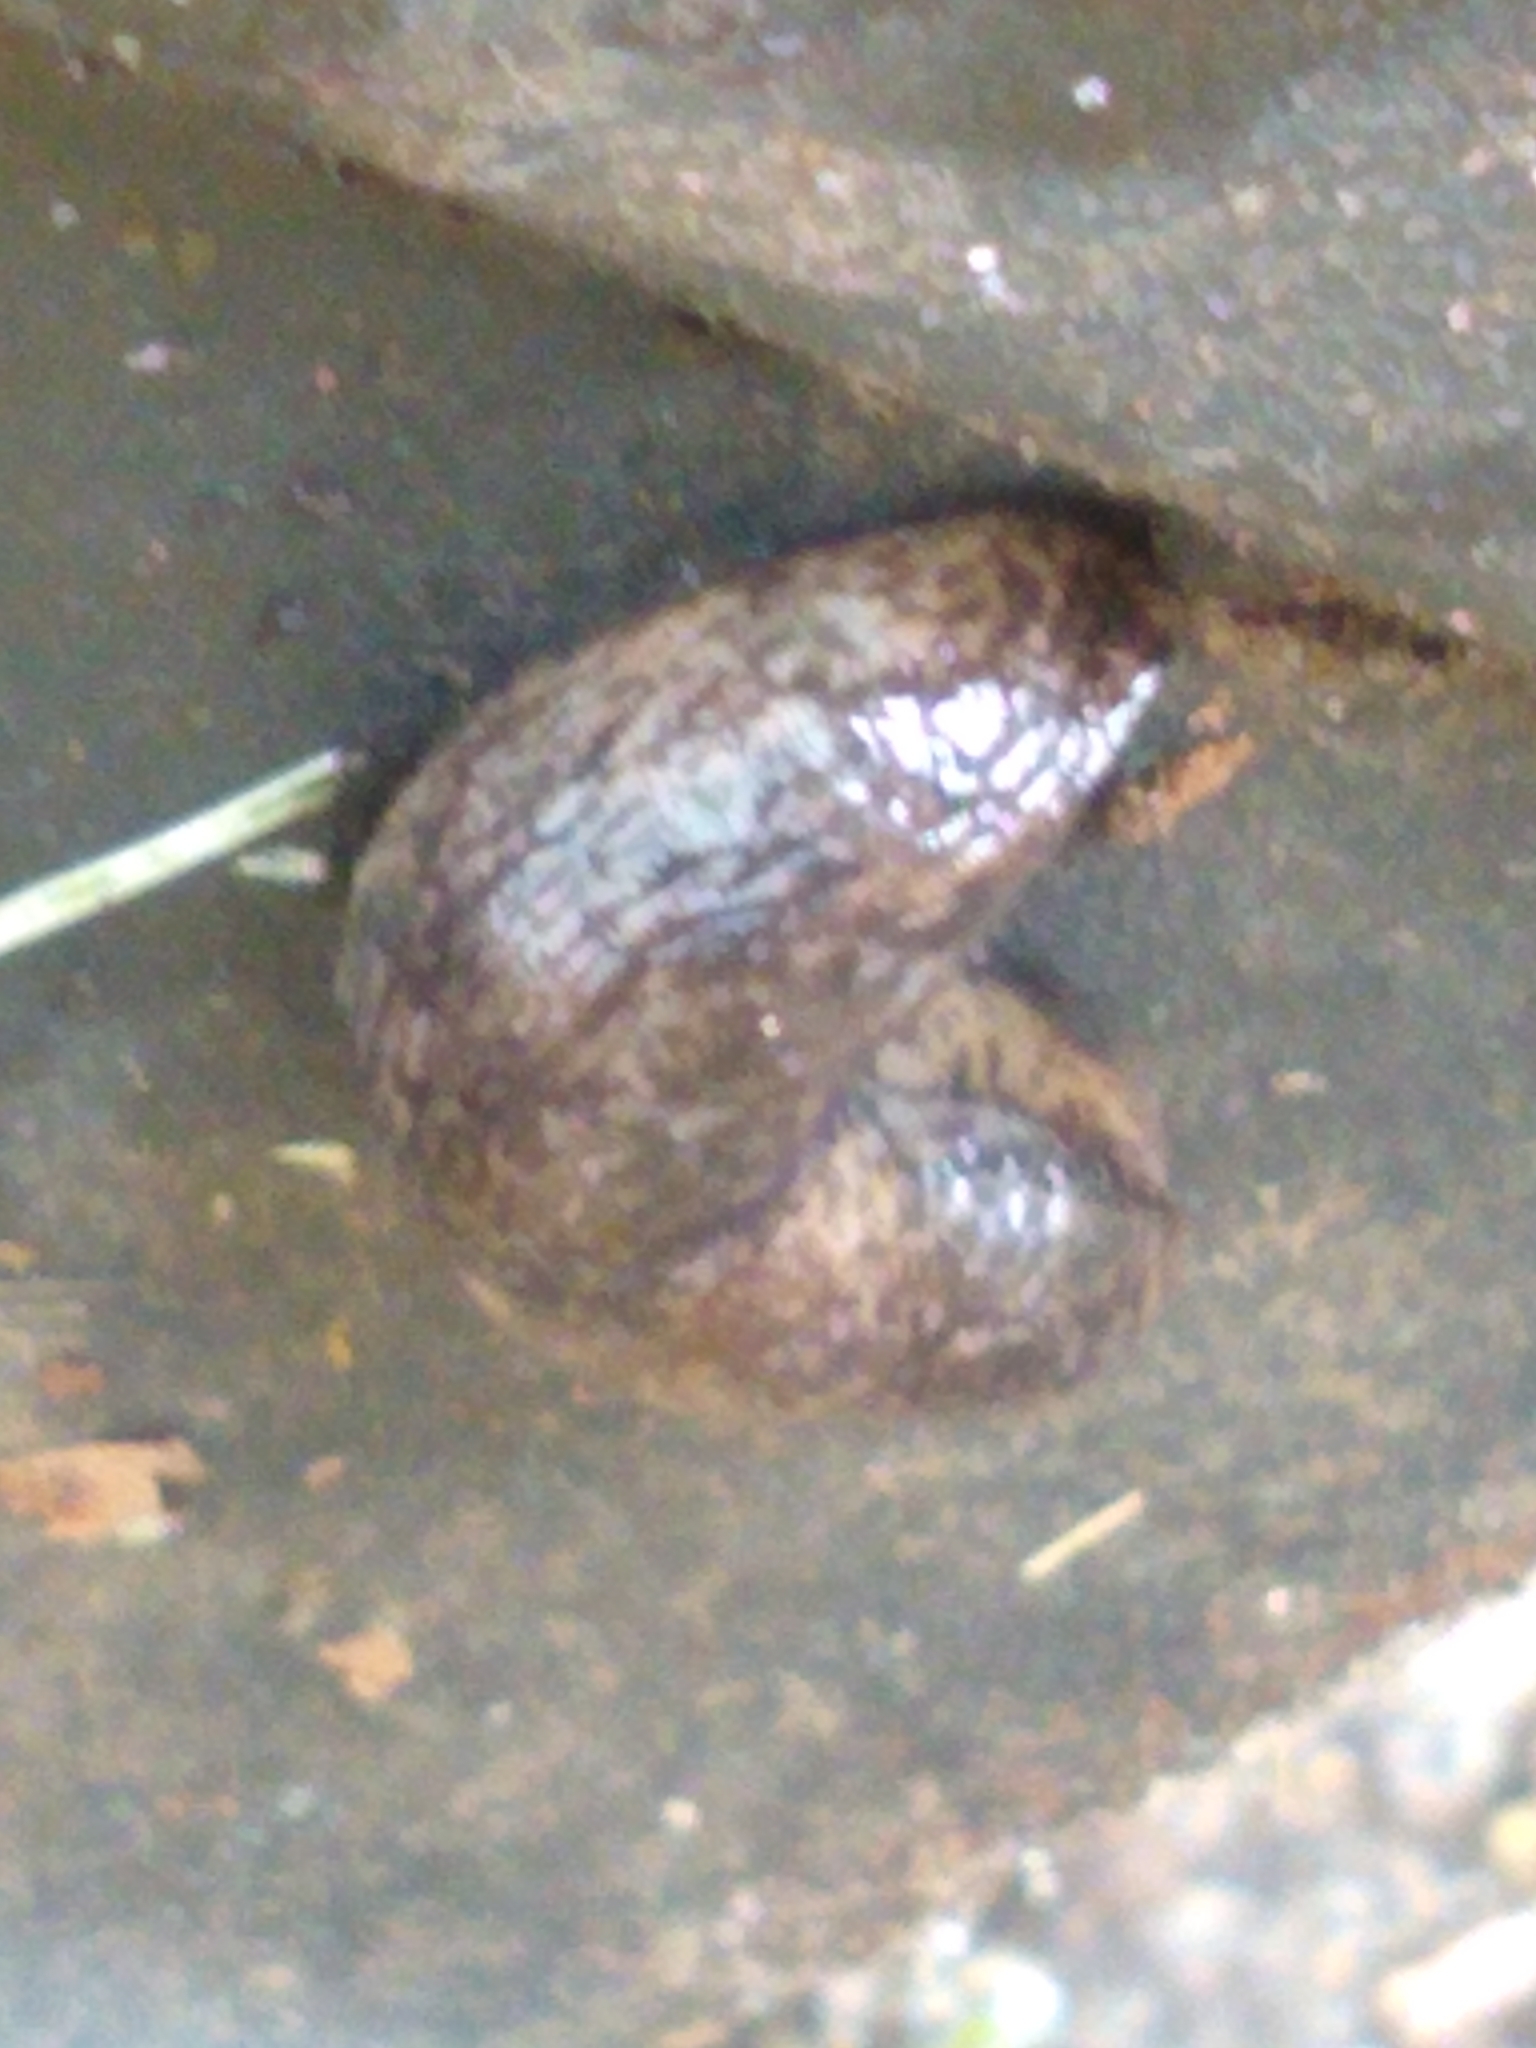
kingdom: Animalia
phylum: Mollusca
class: Gastropoda
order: Stylommatophora
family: Agriolimacidae
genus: Deroceras
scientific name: Deroceras reticulatum
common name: Gray field slug
